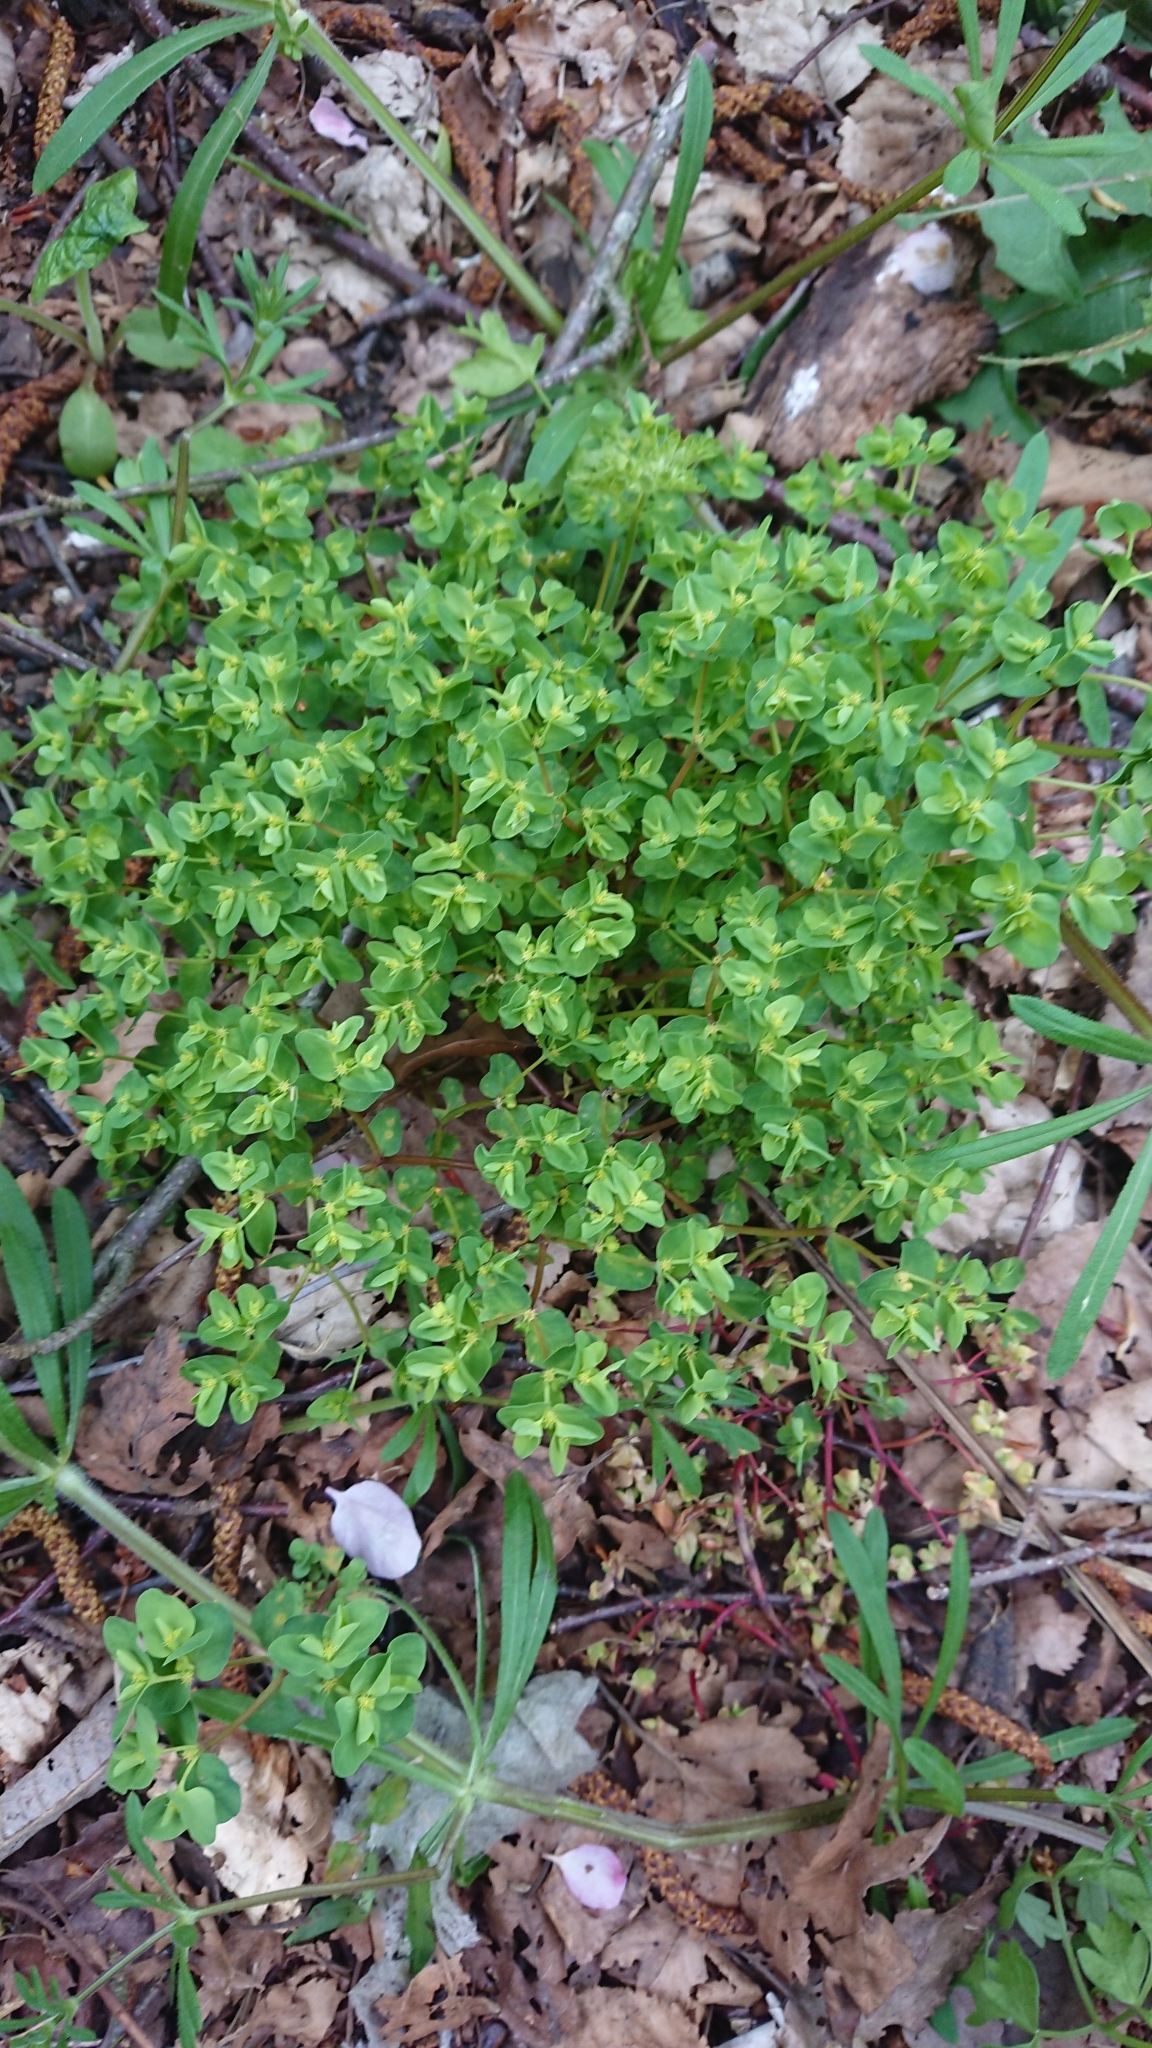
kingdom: Plantae
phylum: Tracheophyta
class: Magnoliopsida
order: Malpighiales
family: Euphorbiaceae
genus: Euphorbia
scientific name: Euphorbia peplus
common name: Petty spurge
